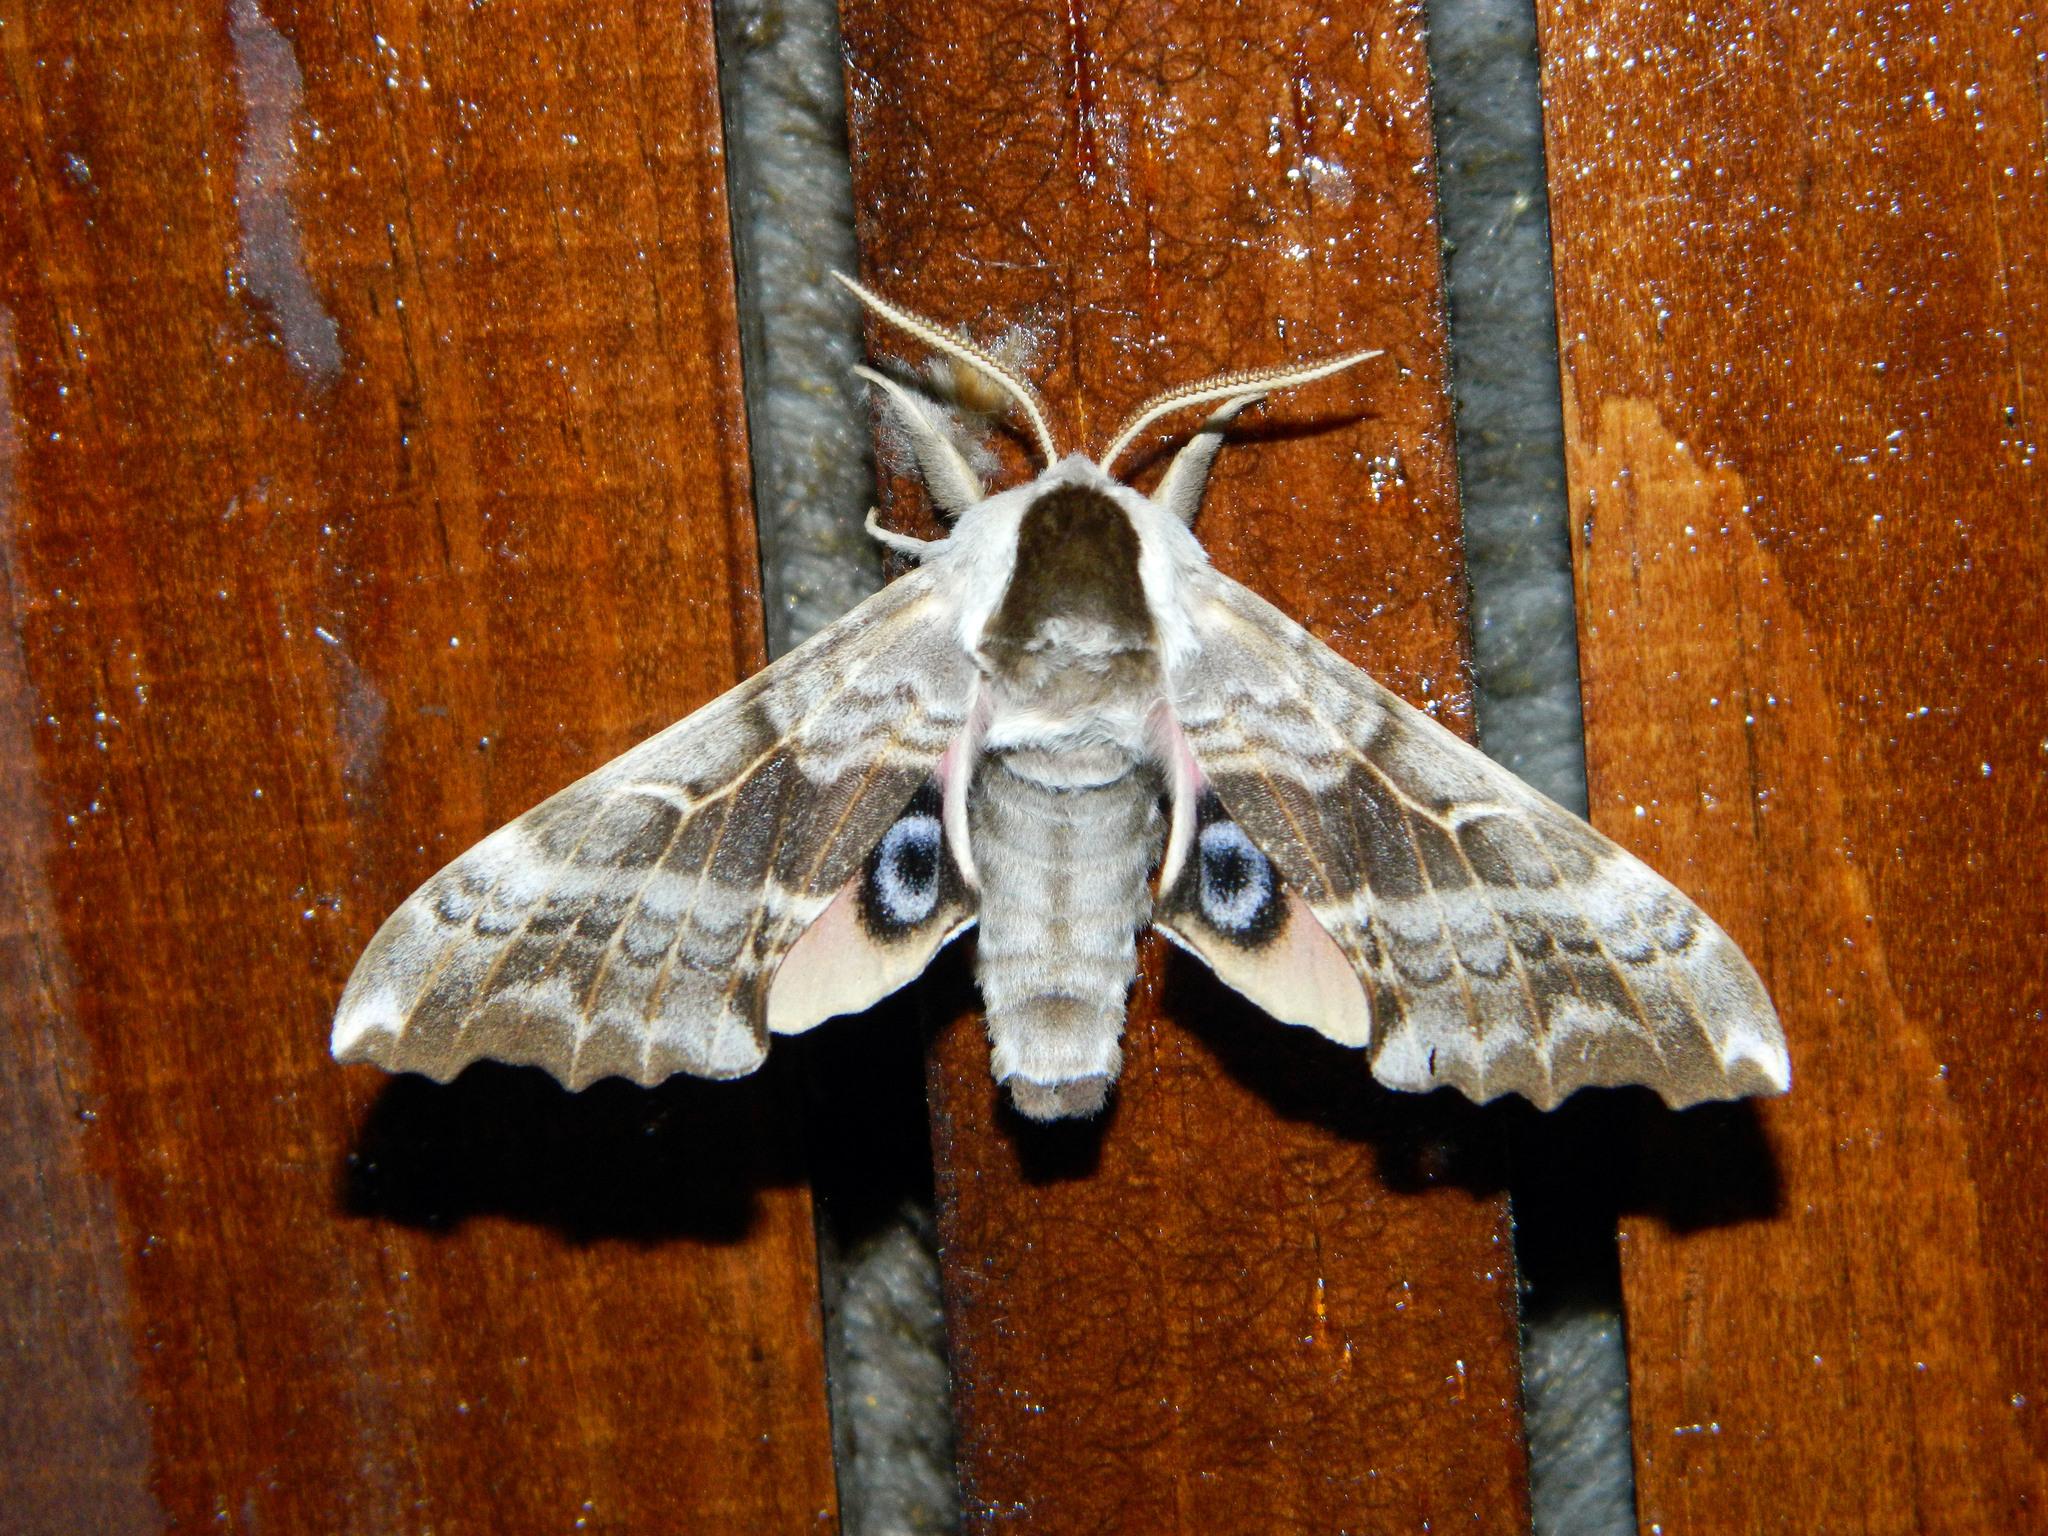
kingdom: Animalia
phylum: Arthropoda
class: Insecta
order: Lepidoptera
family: Sphingidae
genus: Smerinthus
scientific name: Smerinthus cerisyi
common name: Cerisy's sphinx moth
